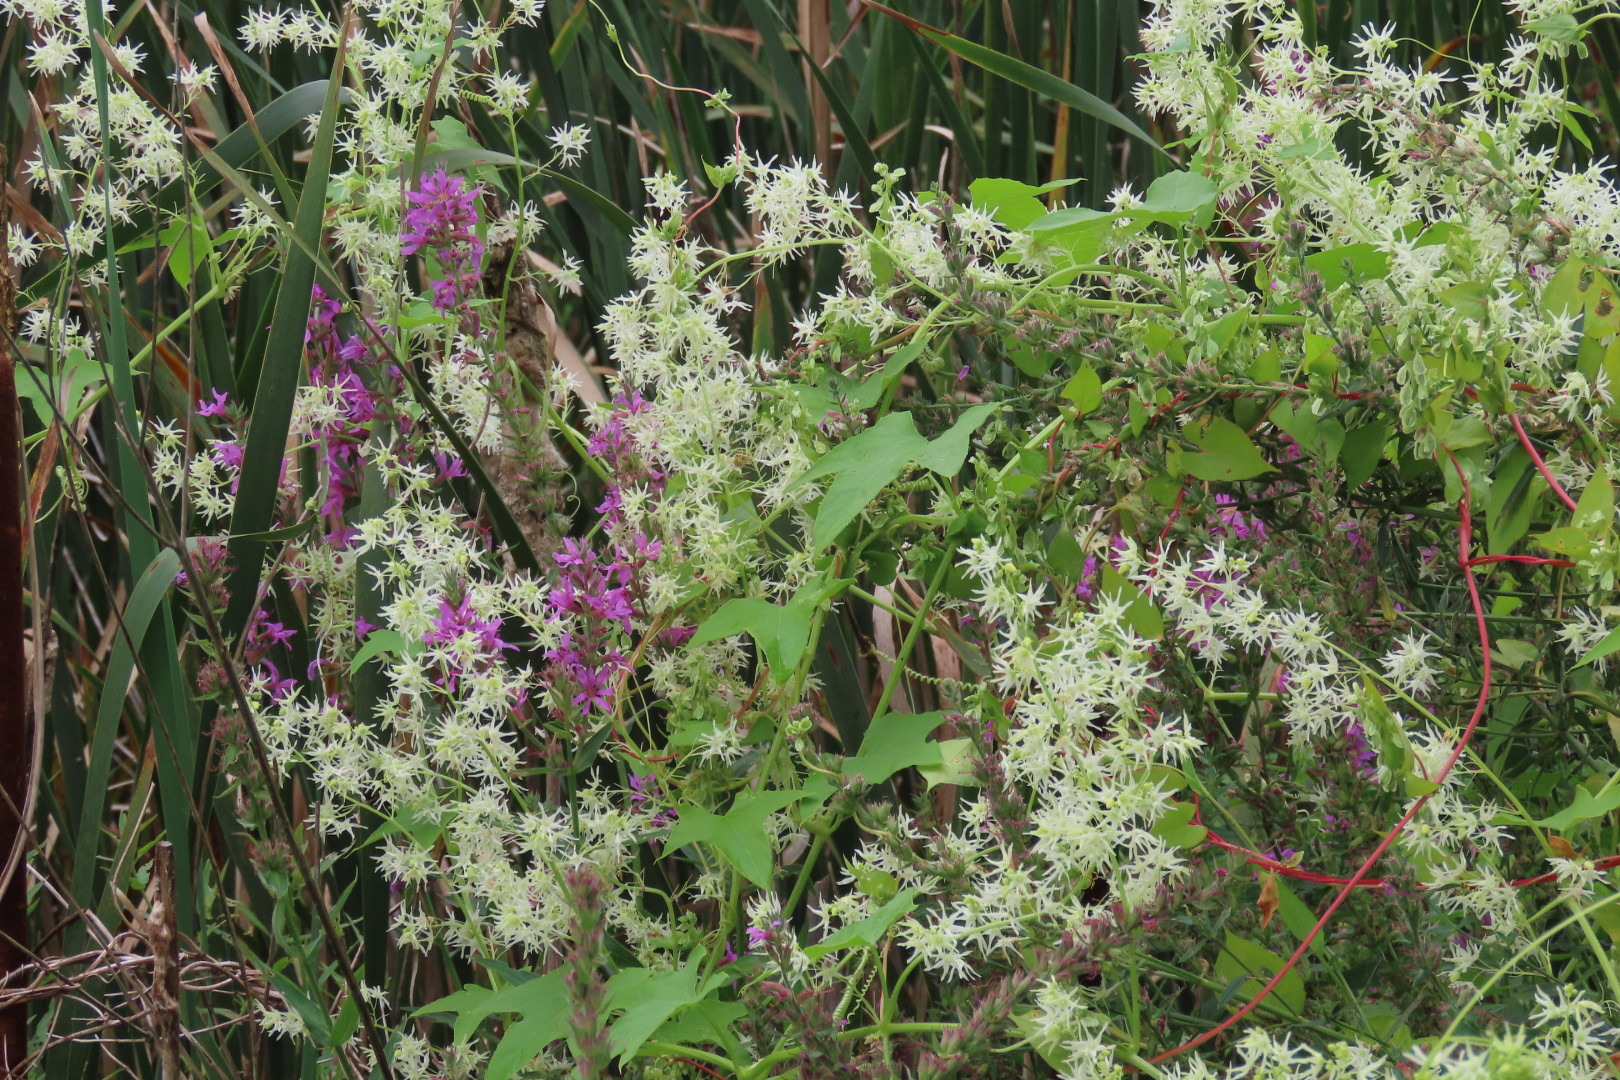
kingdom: Plantae
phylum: Tracheophyta
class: Magnoliopsida
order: Cucurbitales
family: Cucurbitaceae
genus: Echinocystis
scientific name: Echinocystis lobata
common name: Wild cucumber
